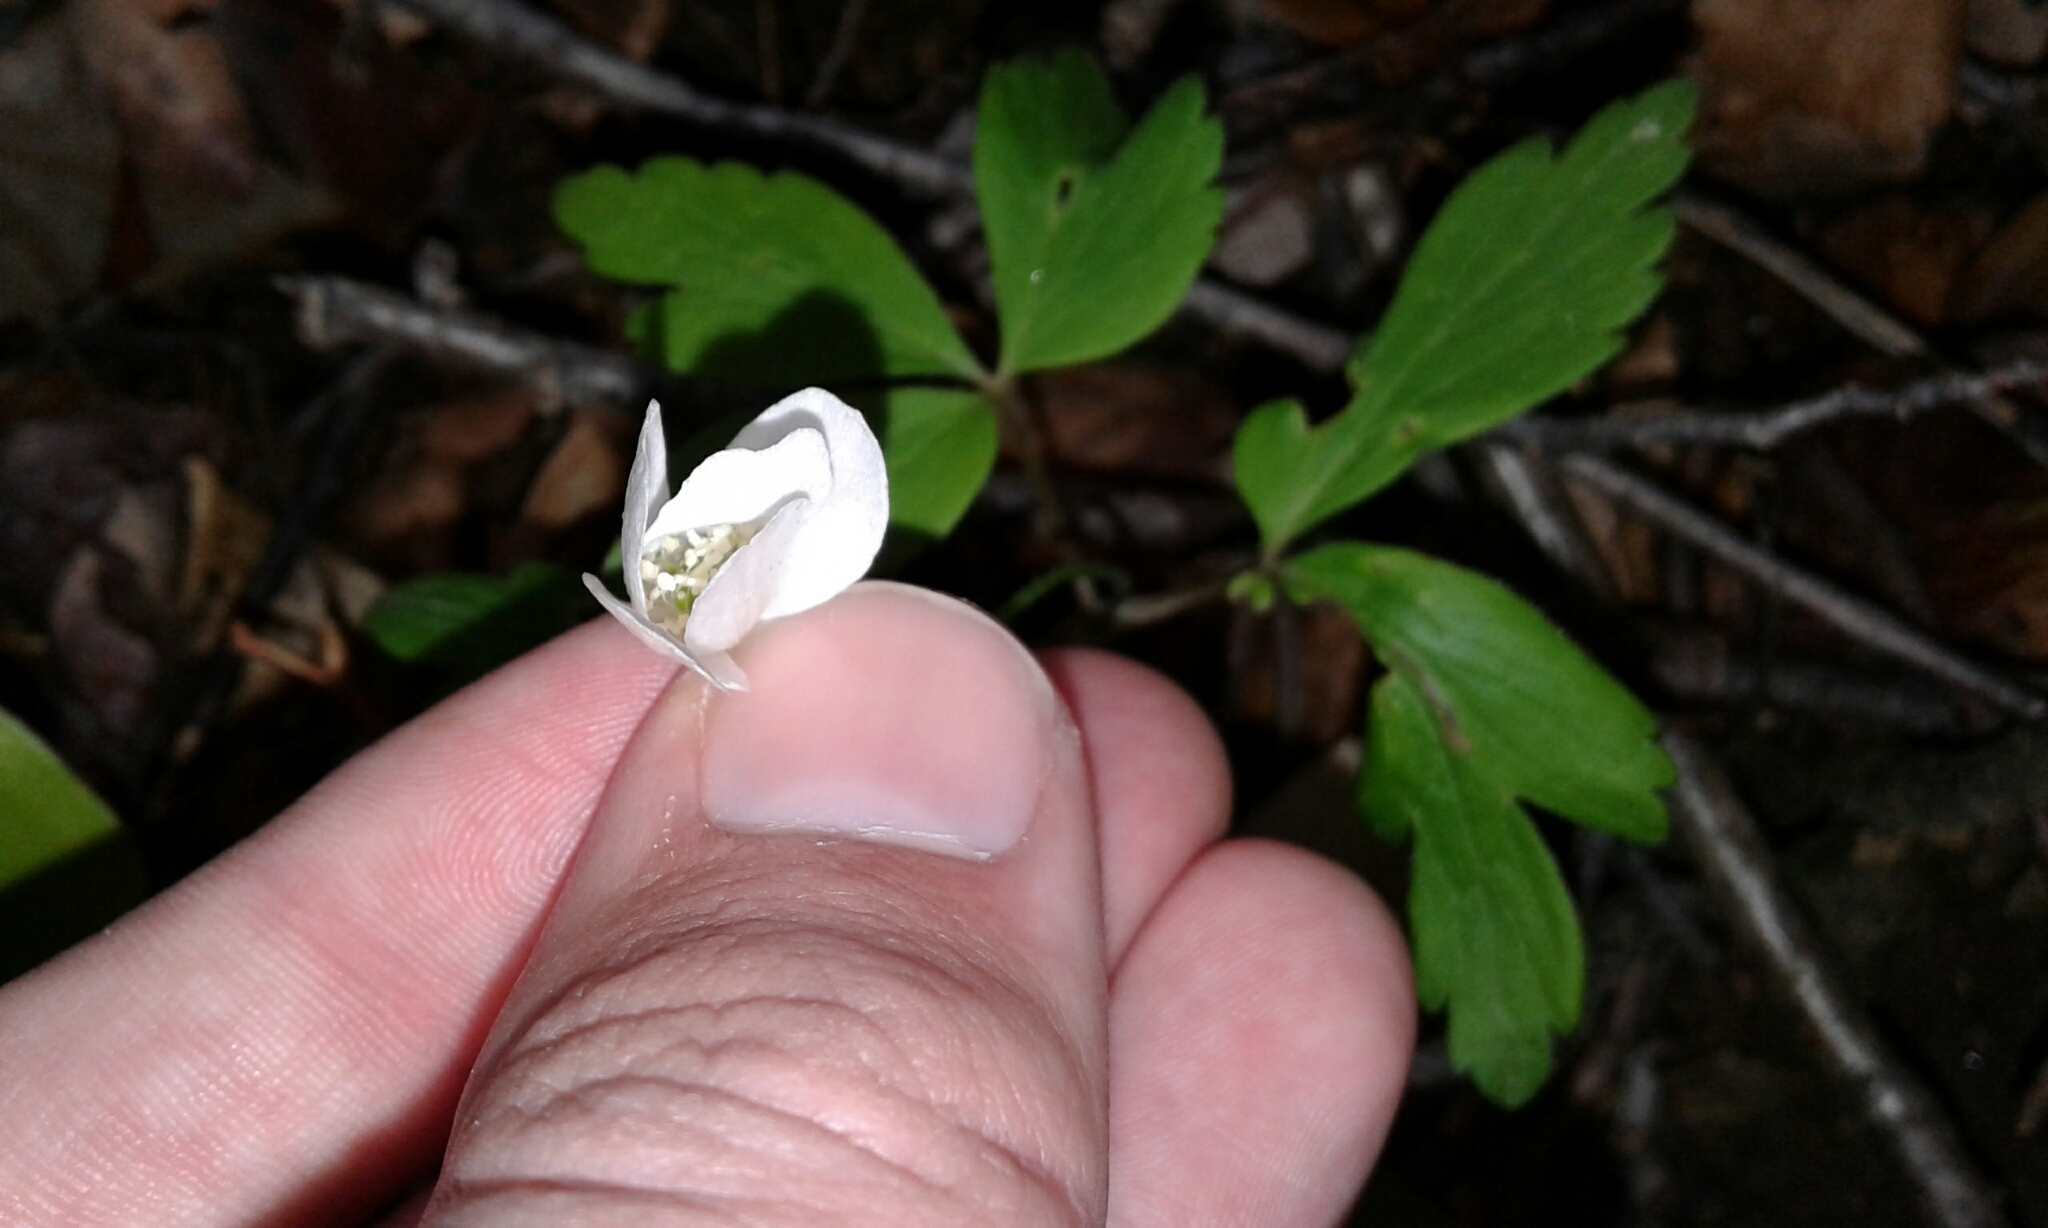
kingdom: Plantae
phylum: Tracheophyta
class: Magnoliopsida
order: Ranunculales
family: Ranunculaceae
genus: Anemone
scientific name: Anemone quinquefolia
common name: Wood anemone
